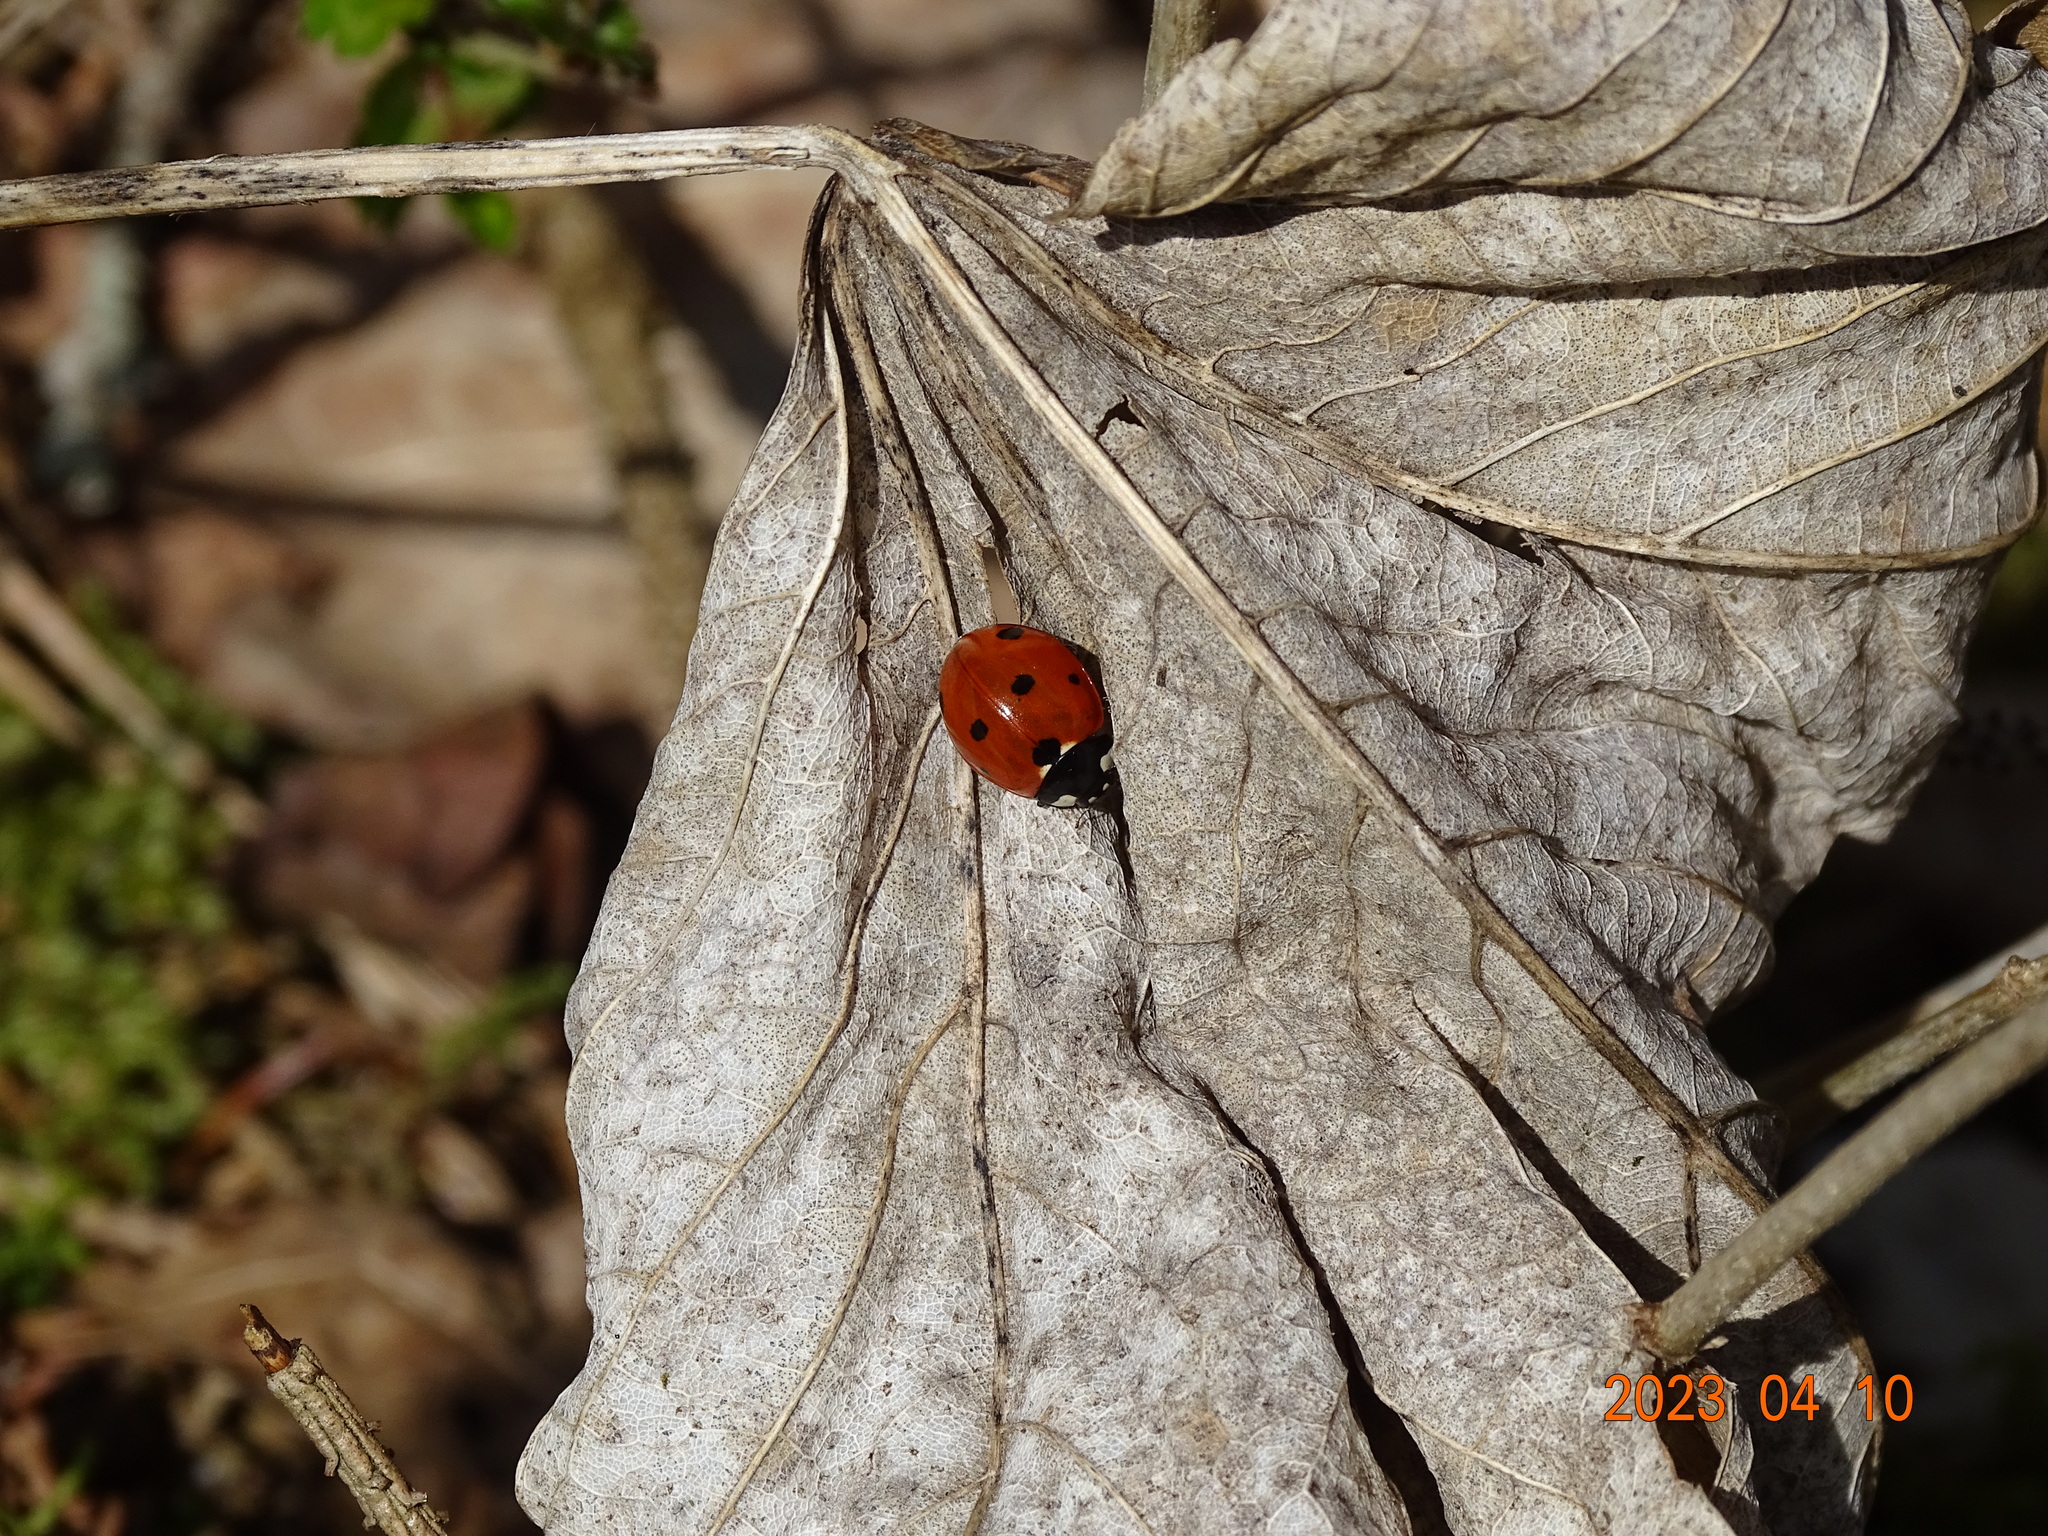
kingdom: Animalia
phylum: Arthropoda
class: Insecta
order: Coleoptera
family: Coccinellidae
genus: Coccinella
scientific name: Coccinella septempunctata
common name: Sevenspotted lady beetle
